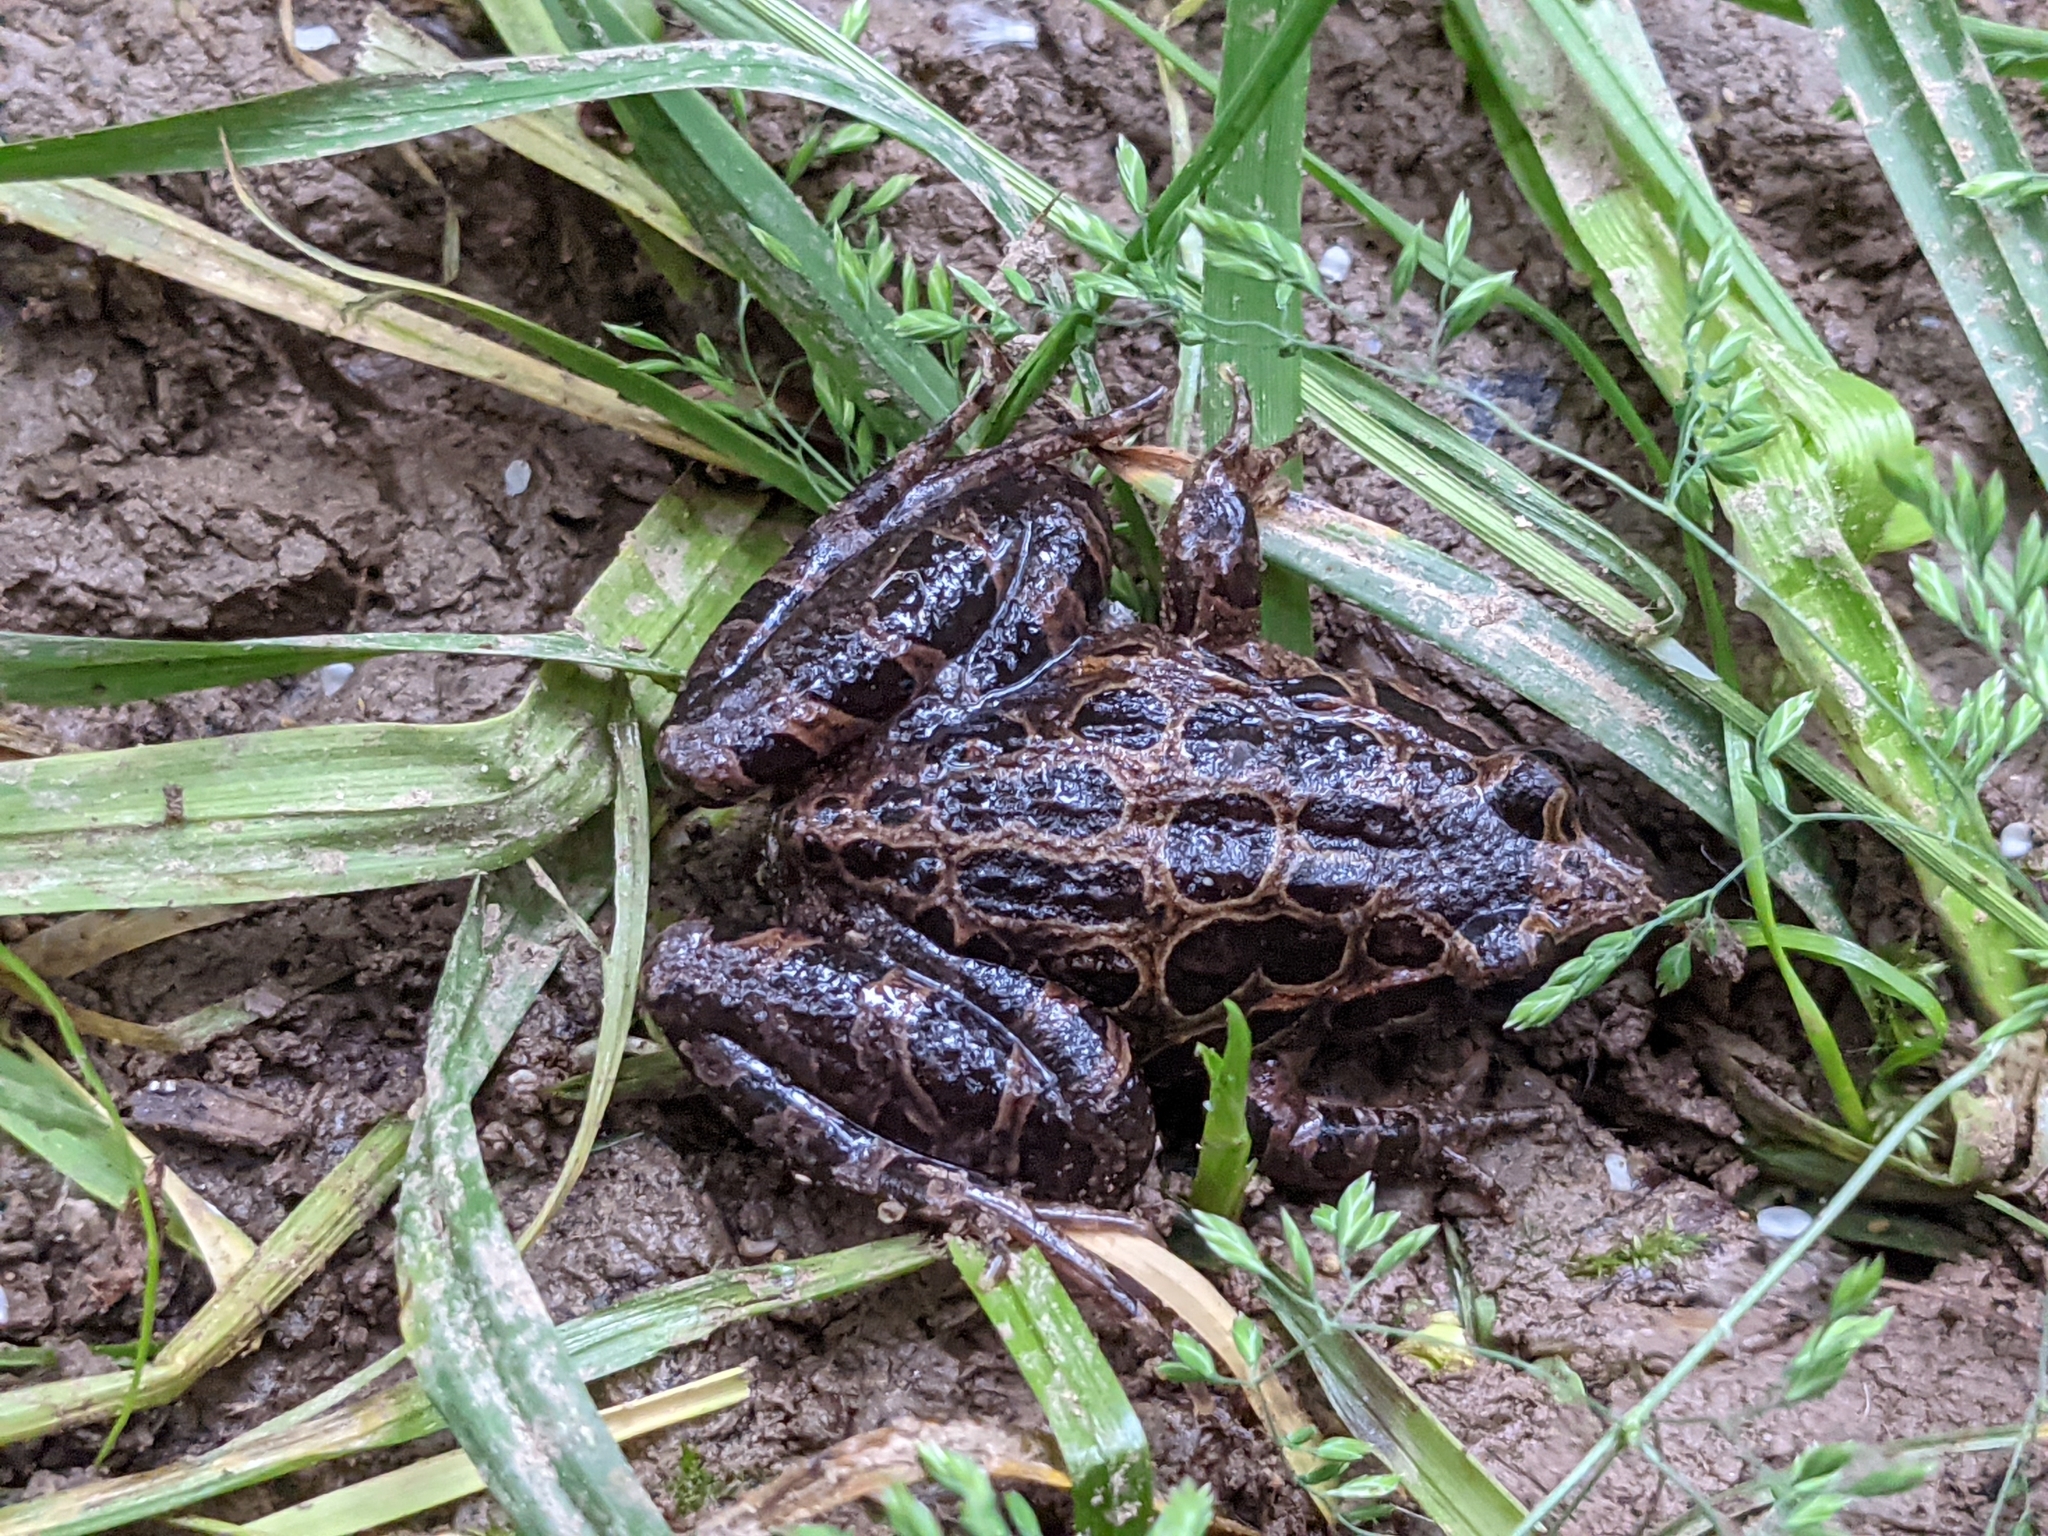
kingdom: Animalia
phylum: Chordata
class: Amphibia
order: Anura
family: Alytidae
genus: Discoglossus
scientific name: Discoglossus pictus
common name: Painted frog
